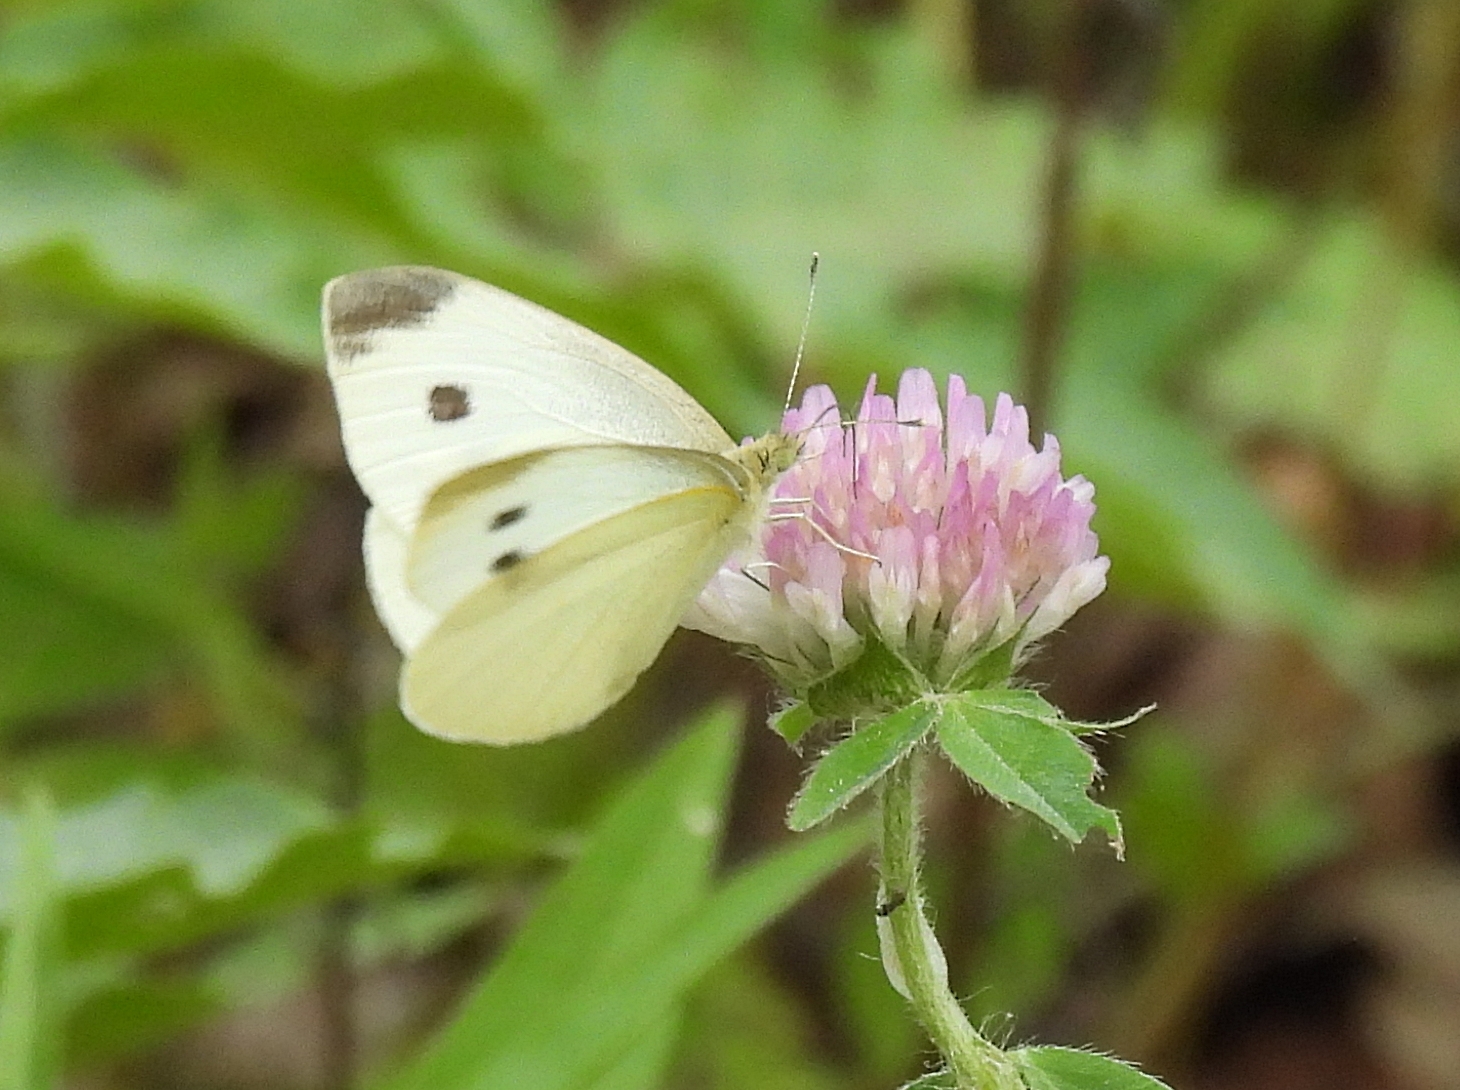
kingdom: Animalia
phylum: Arthropoda
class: Insecta
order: Lepidoptera
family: Pieridae
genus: Pieris
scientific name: Pieris rapae
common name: Small white
